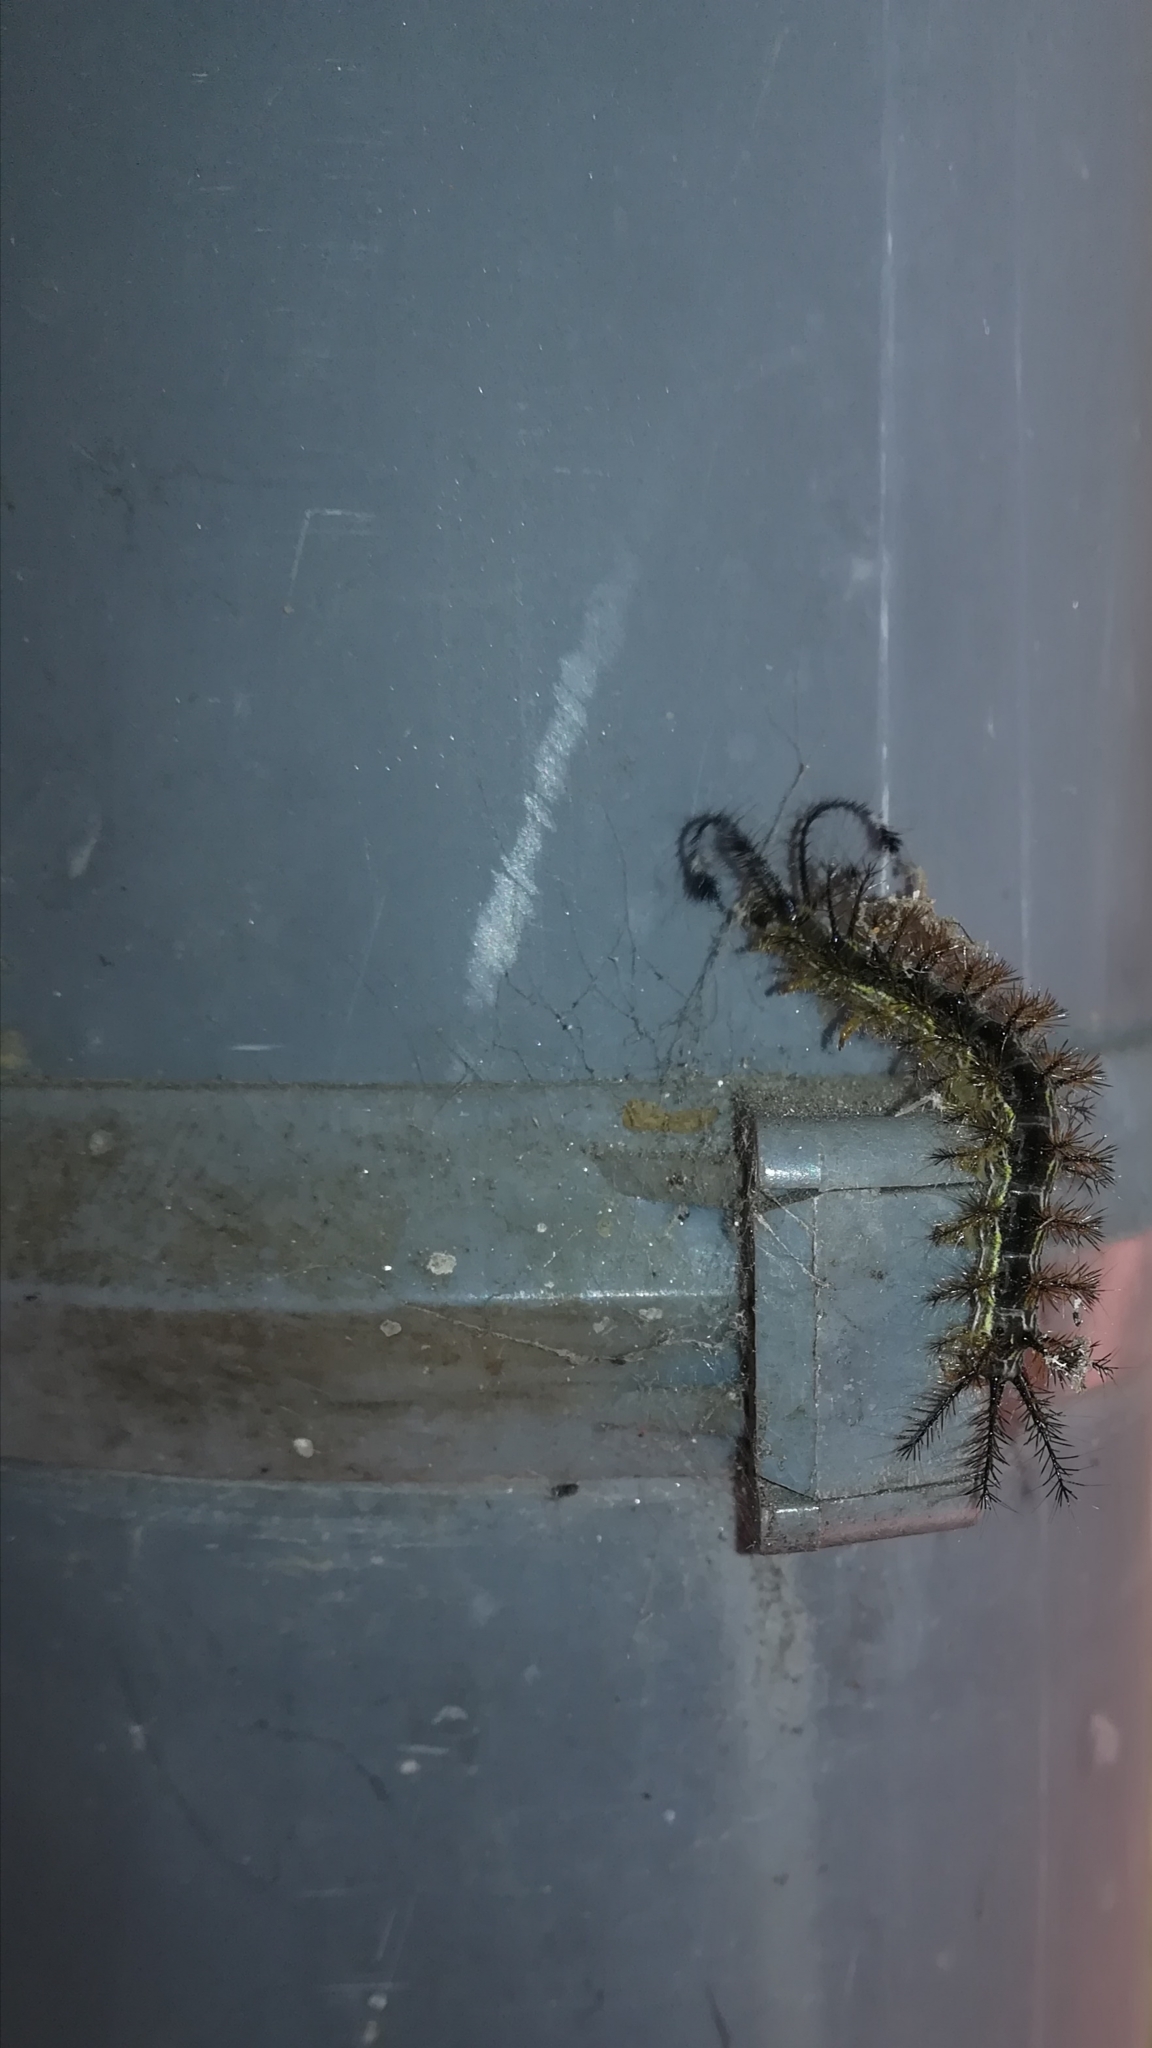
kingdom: Animalia
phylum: Arthropoda
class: Insecta
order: Lepidoptera
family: Saturniidae
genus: Hylesia
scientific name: Hylesia
